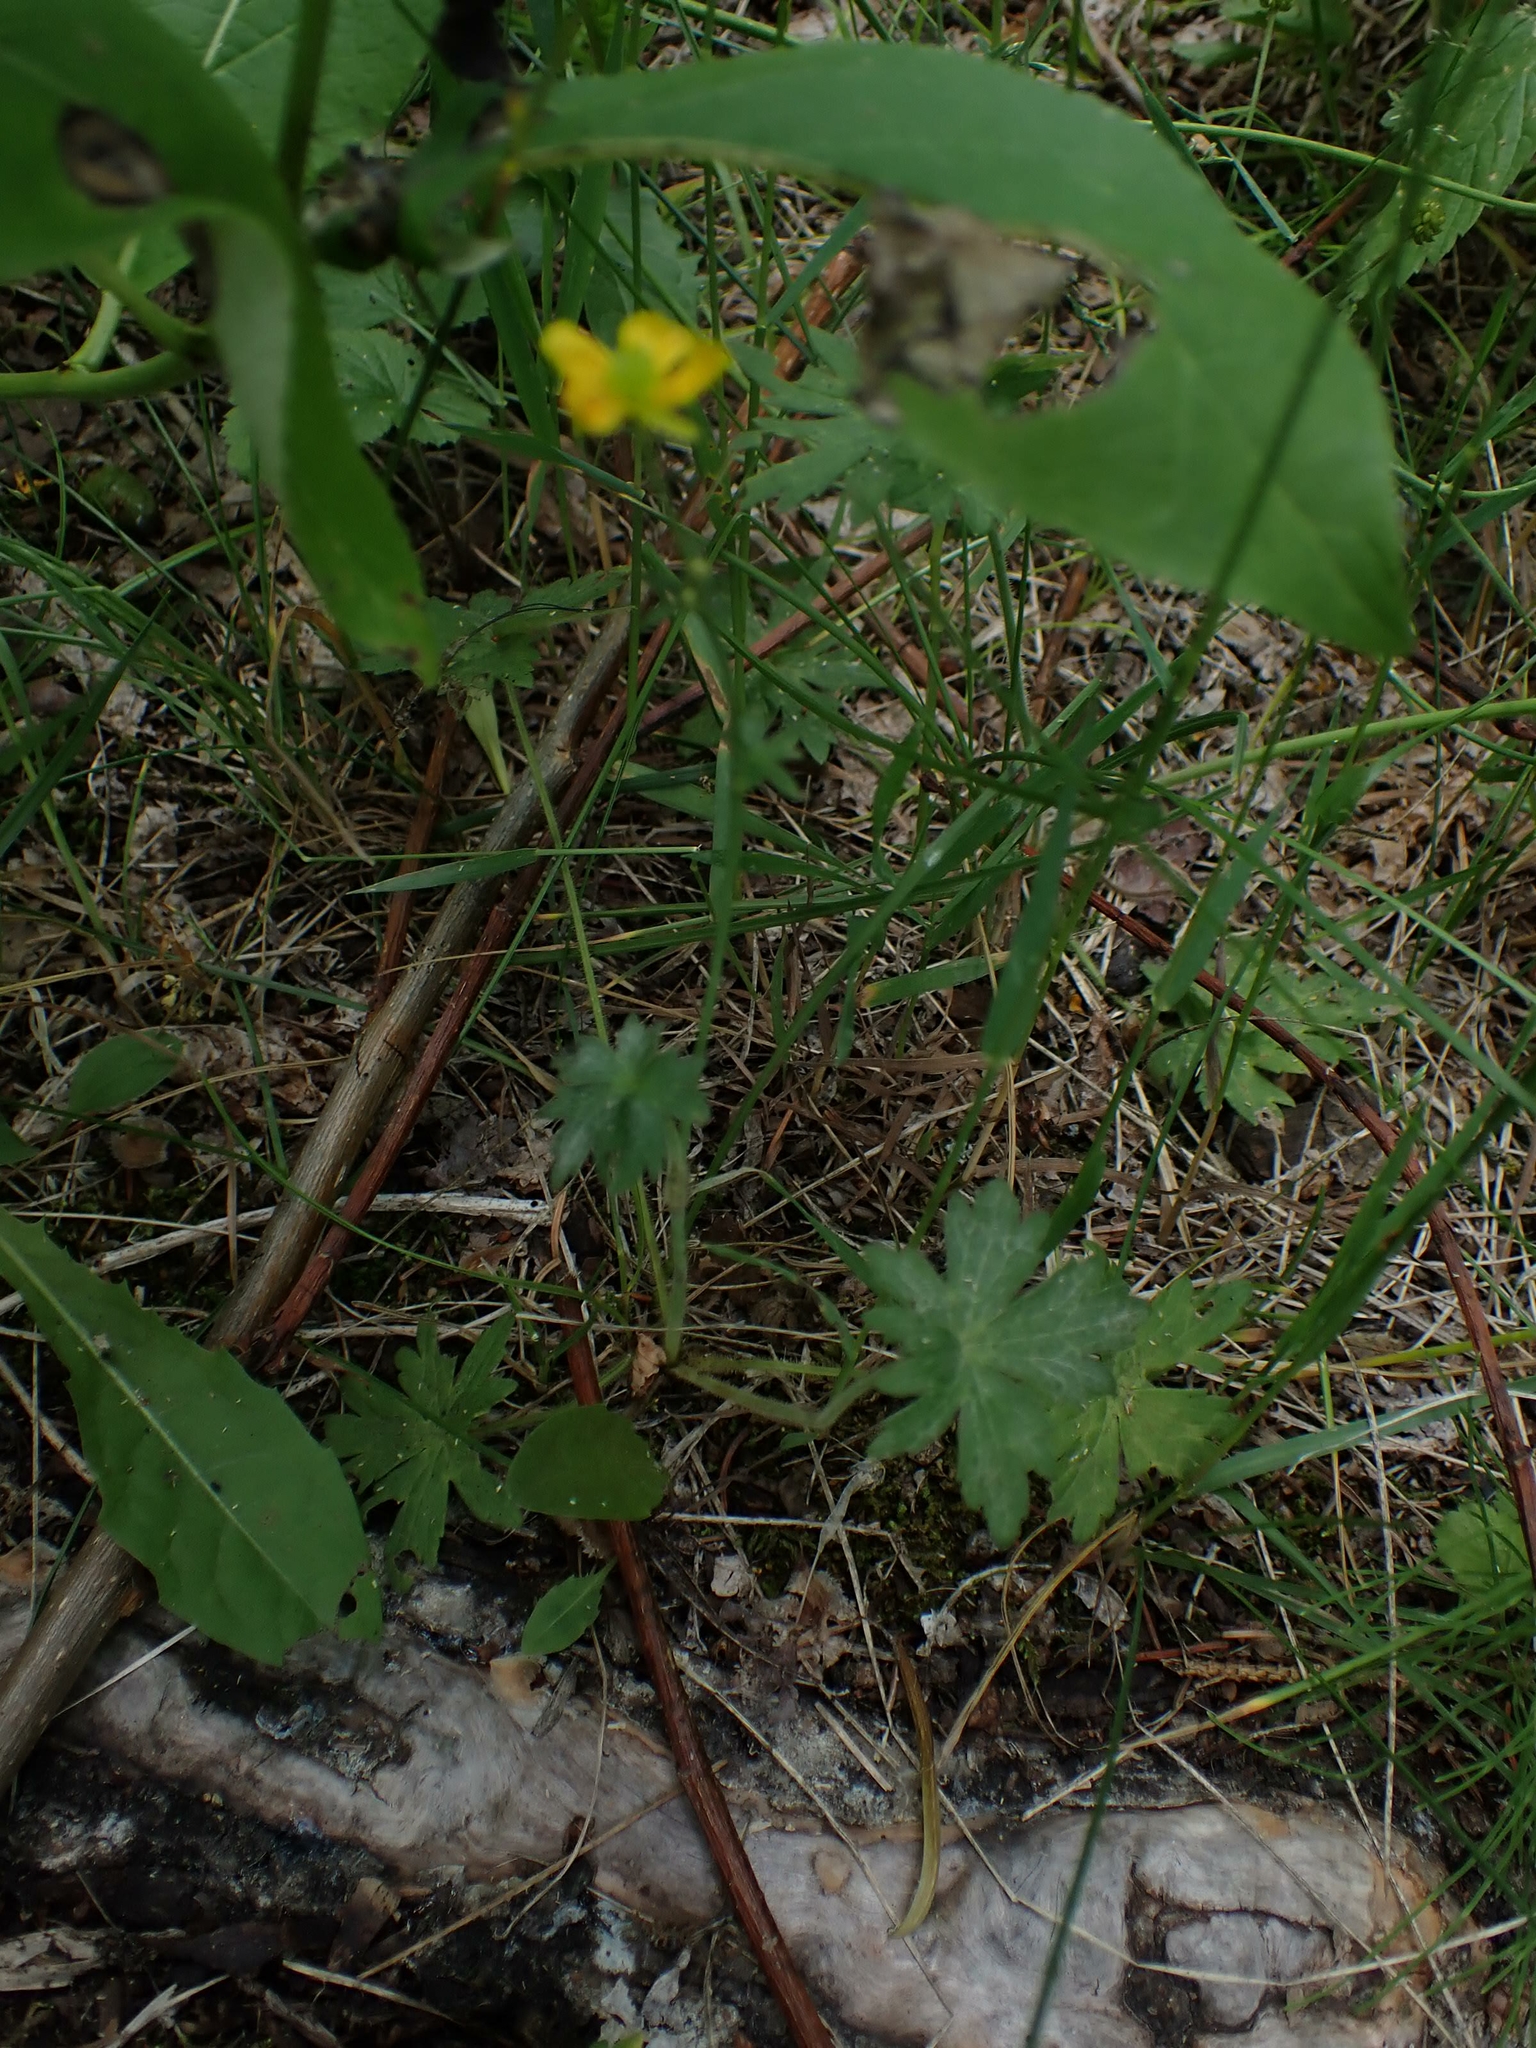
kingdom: Plantae
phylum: Tracheophyta
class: Magnoliopsida
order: Ranunculales
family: Ranunculaceae
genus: Ranunculus
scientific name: Ranunculus acris
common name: Meadow buttercup
